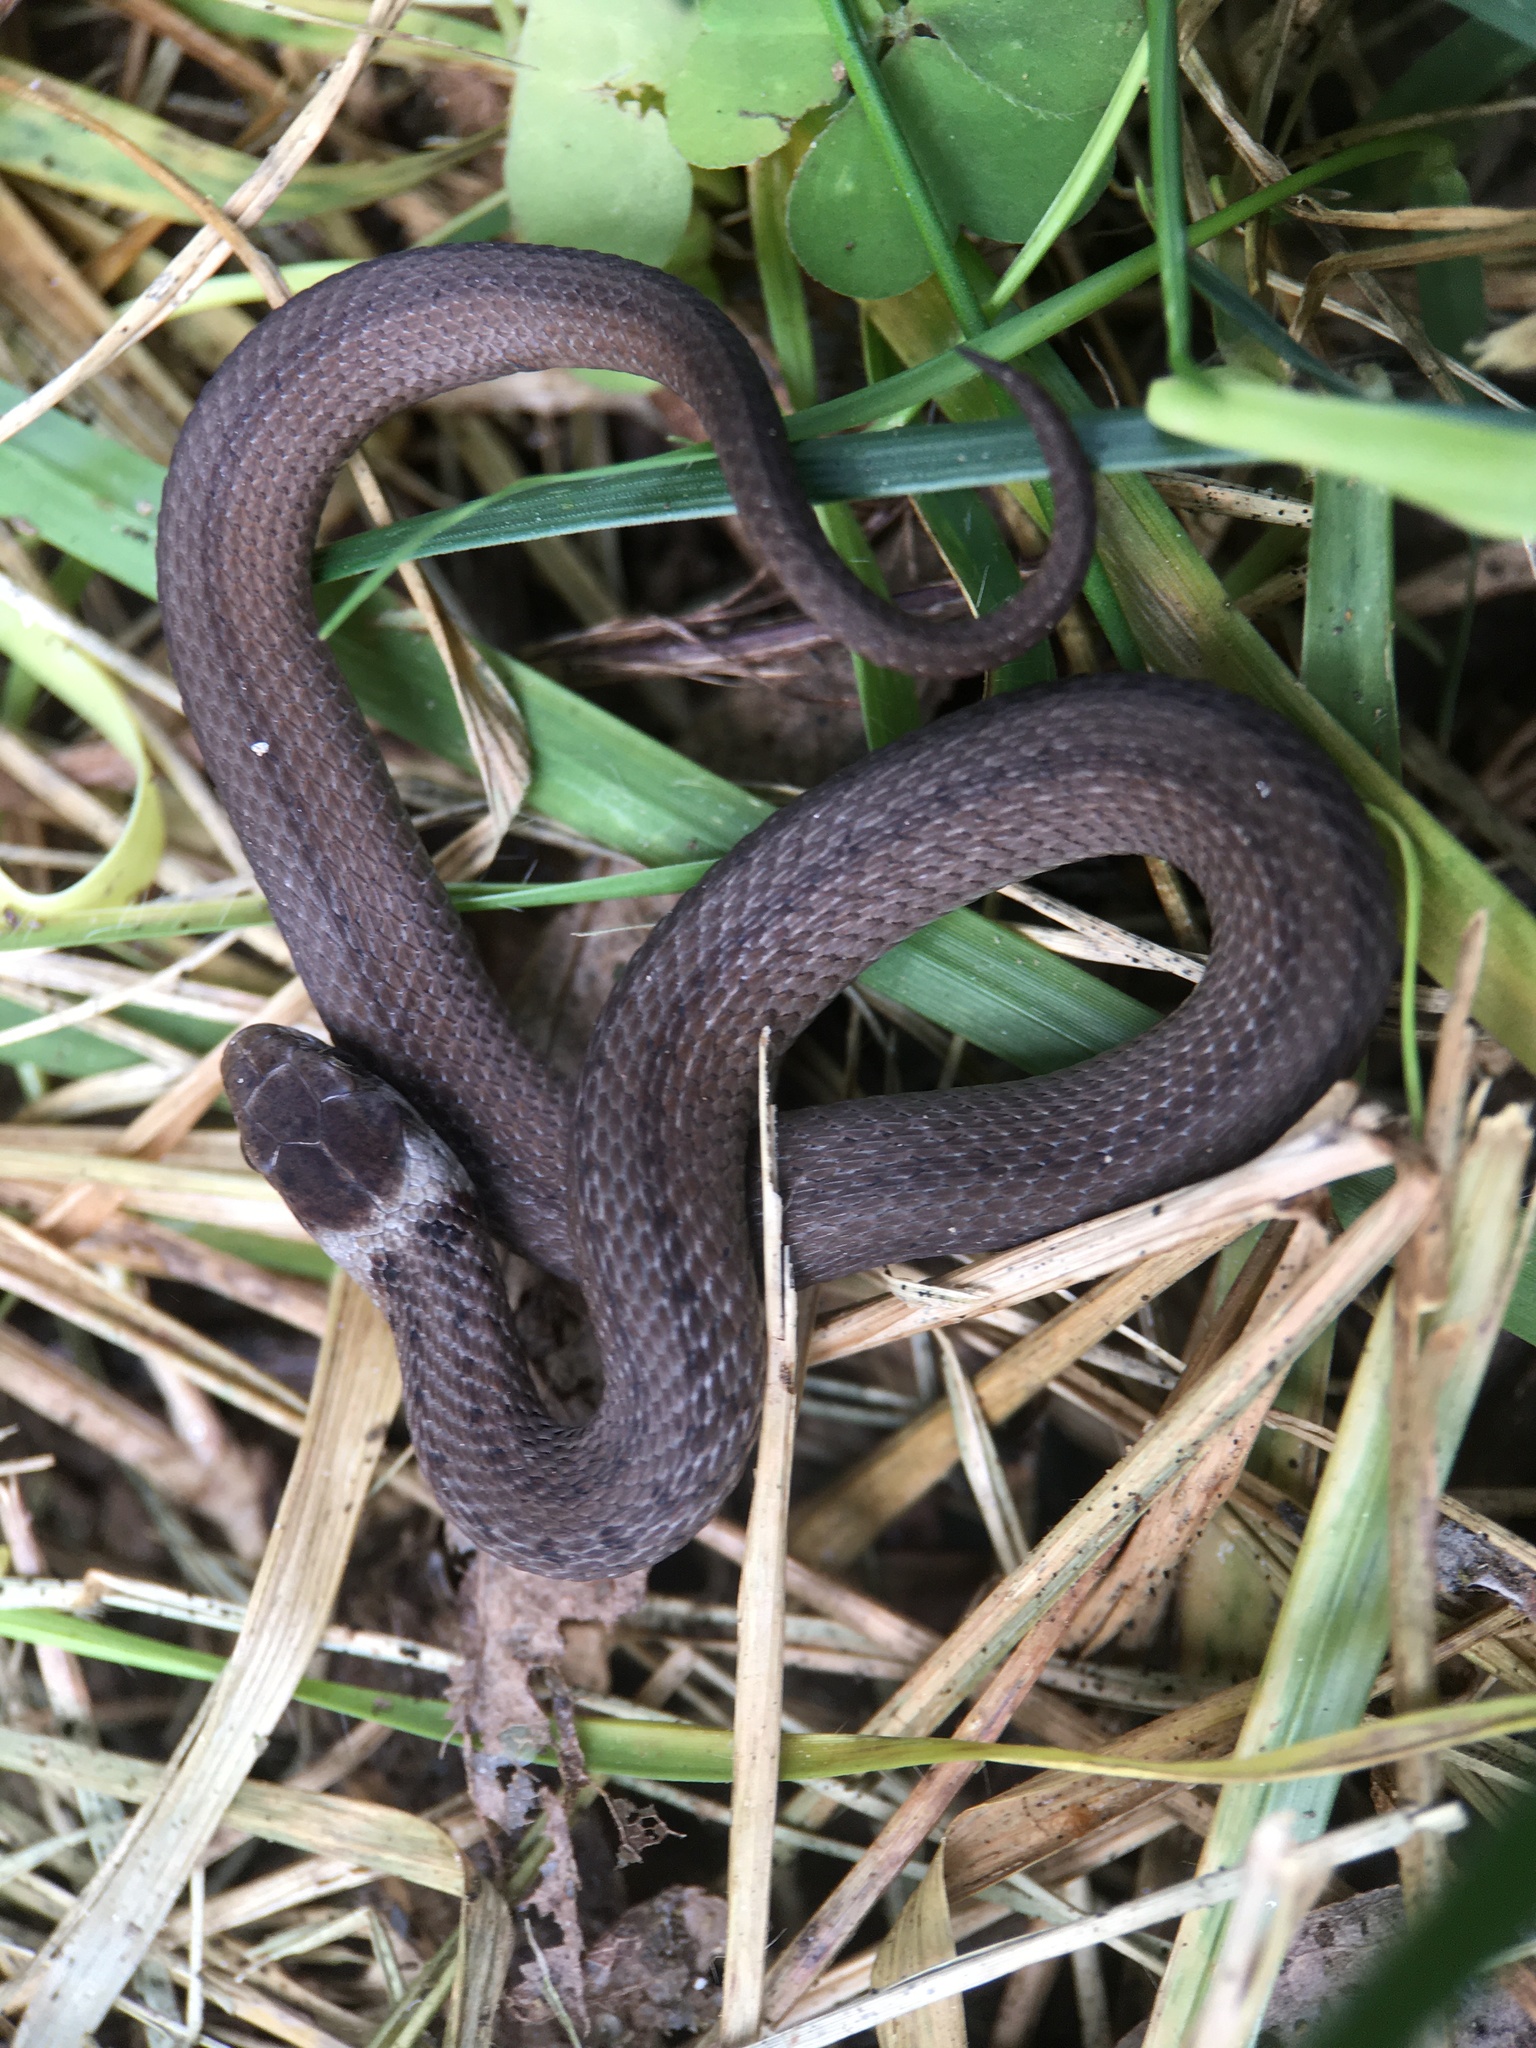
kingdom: Animalia
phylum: Chordata
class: Squamata
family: Colubridae
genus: Storeria
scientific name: Storeria dekayi
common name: (dekay’s) brown snake
